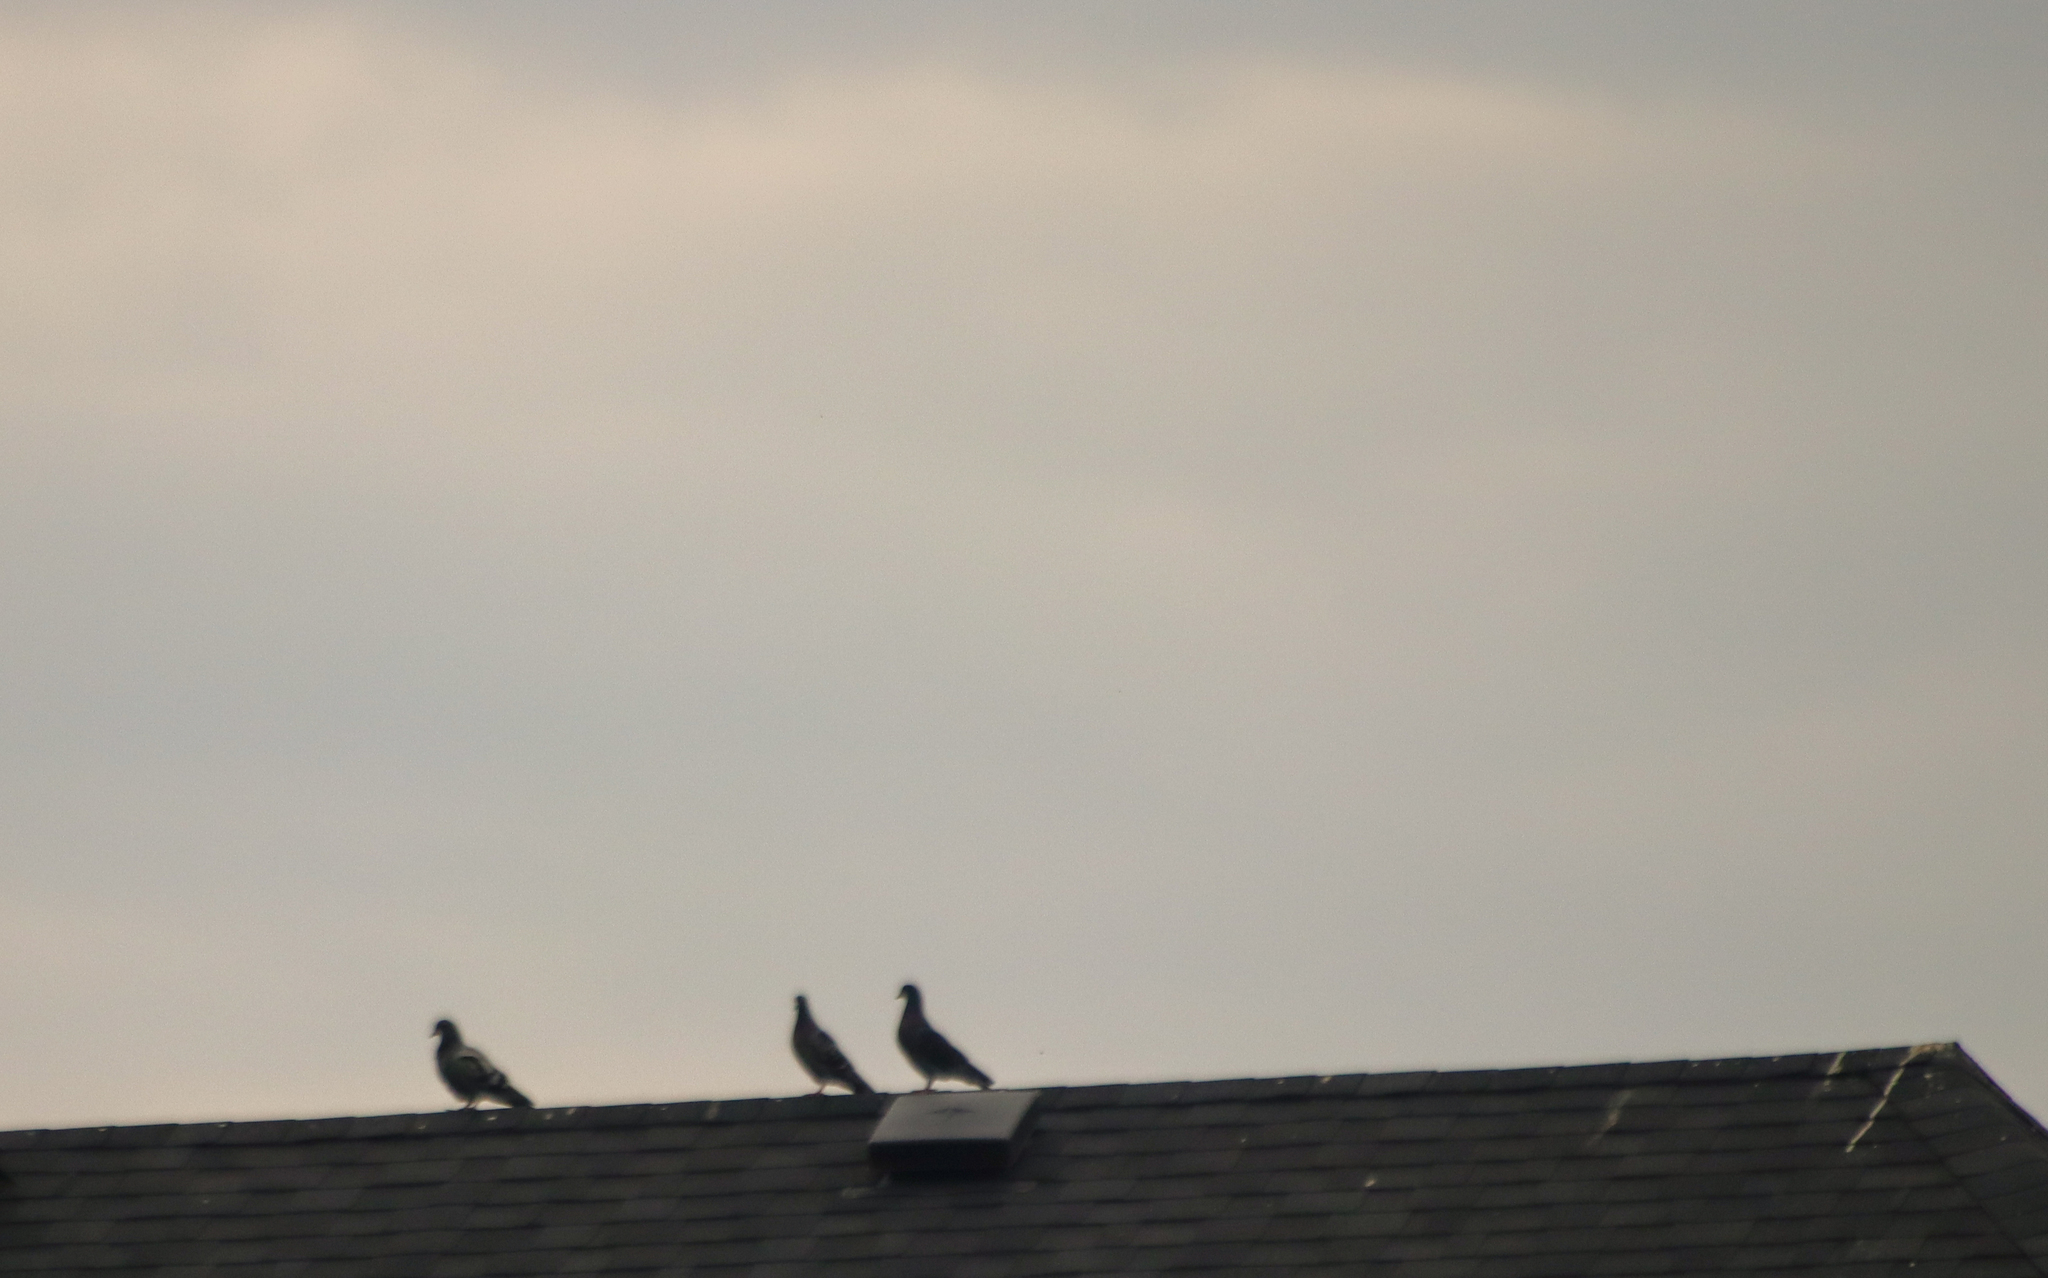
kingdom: Animalia
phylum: Chordata
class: Aves
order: Columbiformes
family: Columbidae
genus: Columba
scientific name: Columba livia
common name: Rock pigeon
